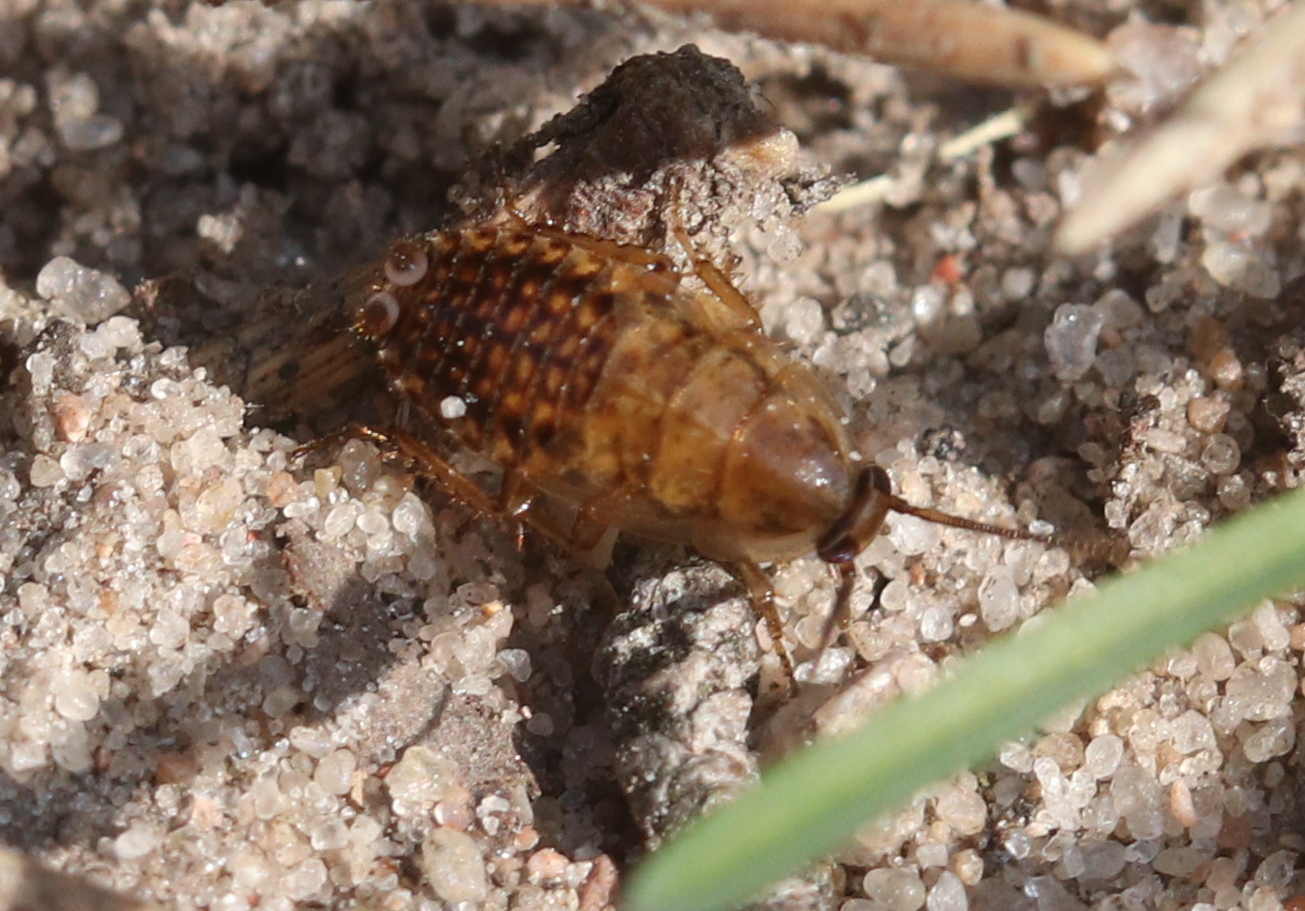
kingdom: Animalia
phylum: Arthropoda
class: Insecta
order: Blattodea
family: Ectobiidae
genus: Ectobius
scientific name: Ectobius lapponicus
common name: Dusky cockroach
